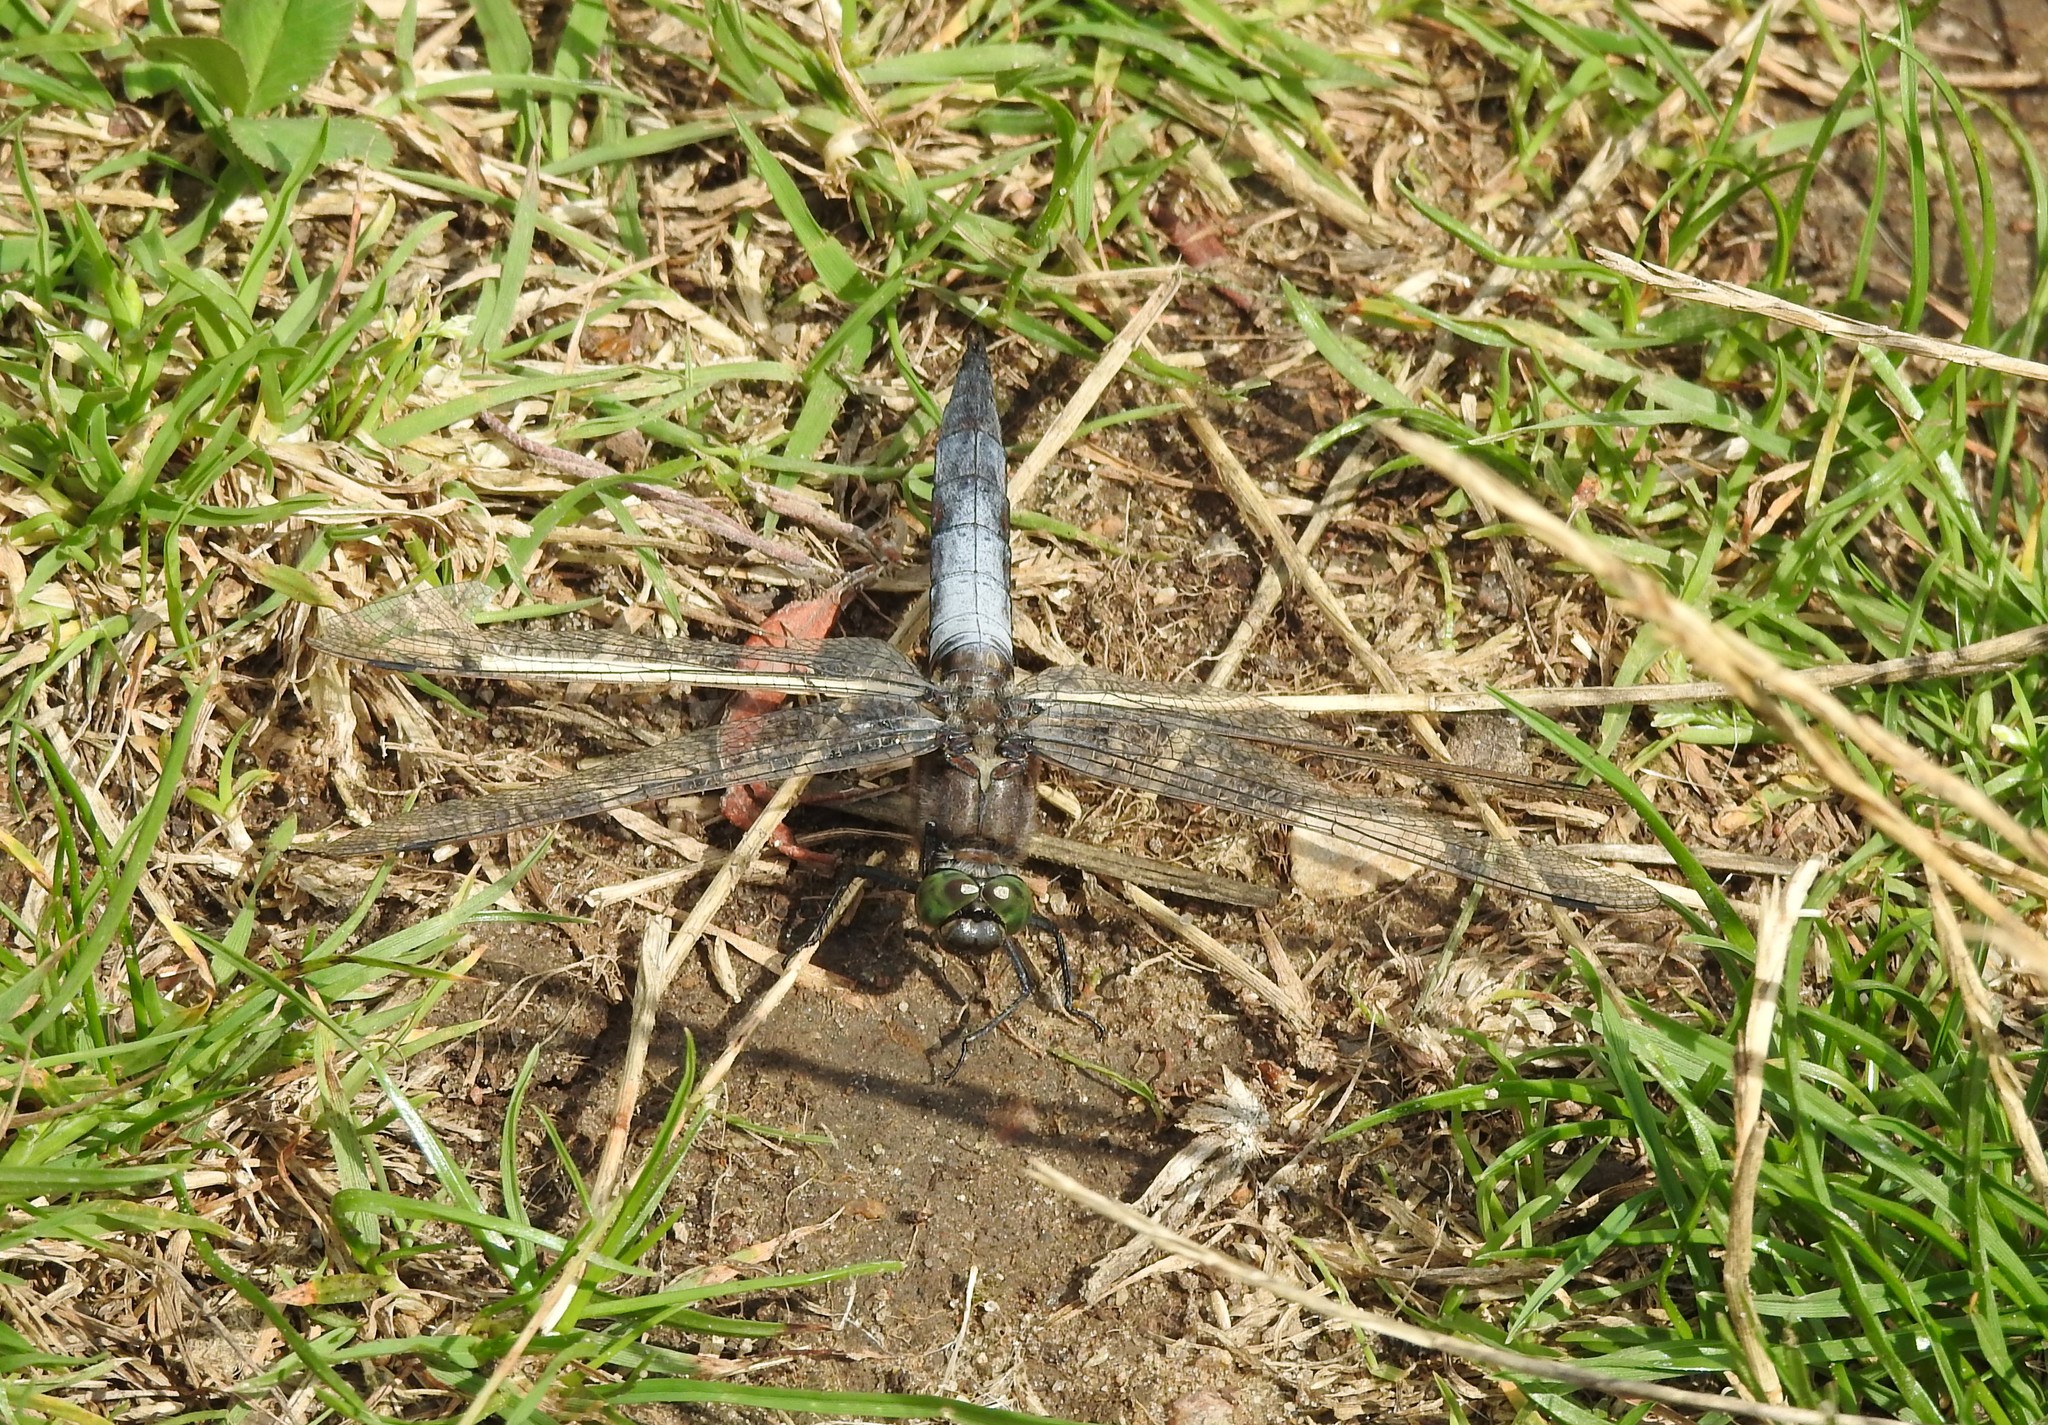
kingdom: Animalia
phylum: Arthropoda
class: Insecta
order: Odonata
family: Libellulidae
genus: Orthetrum
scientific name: Orthetrum cancellatum
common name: Black-tailed skimmer
